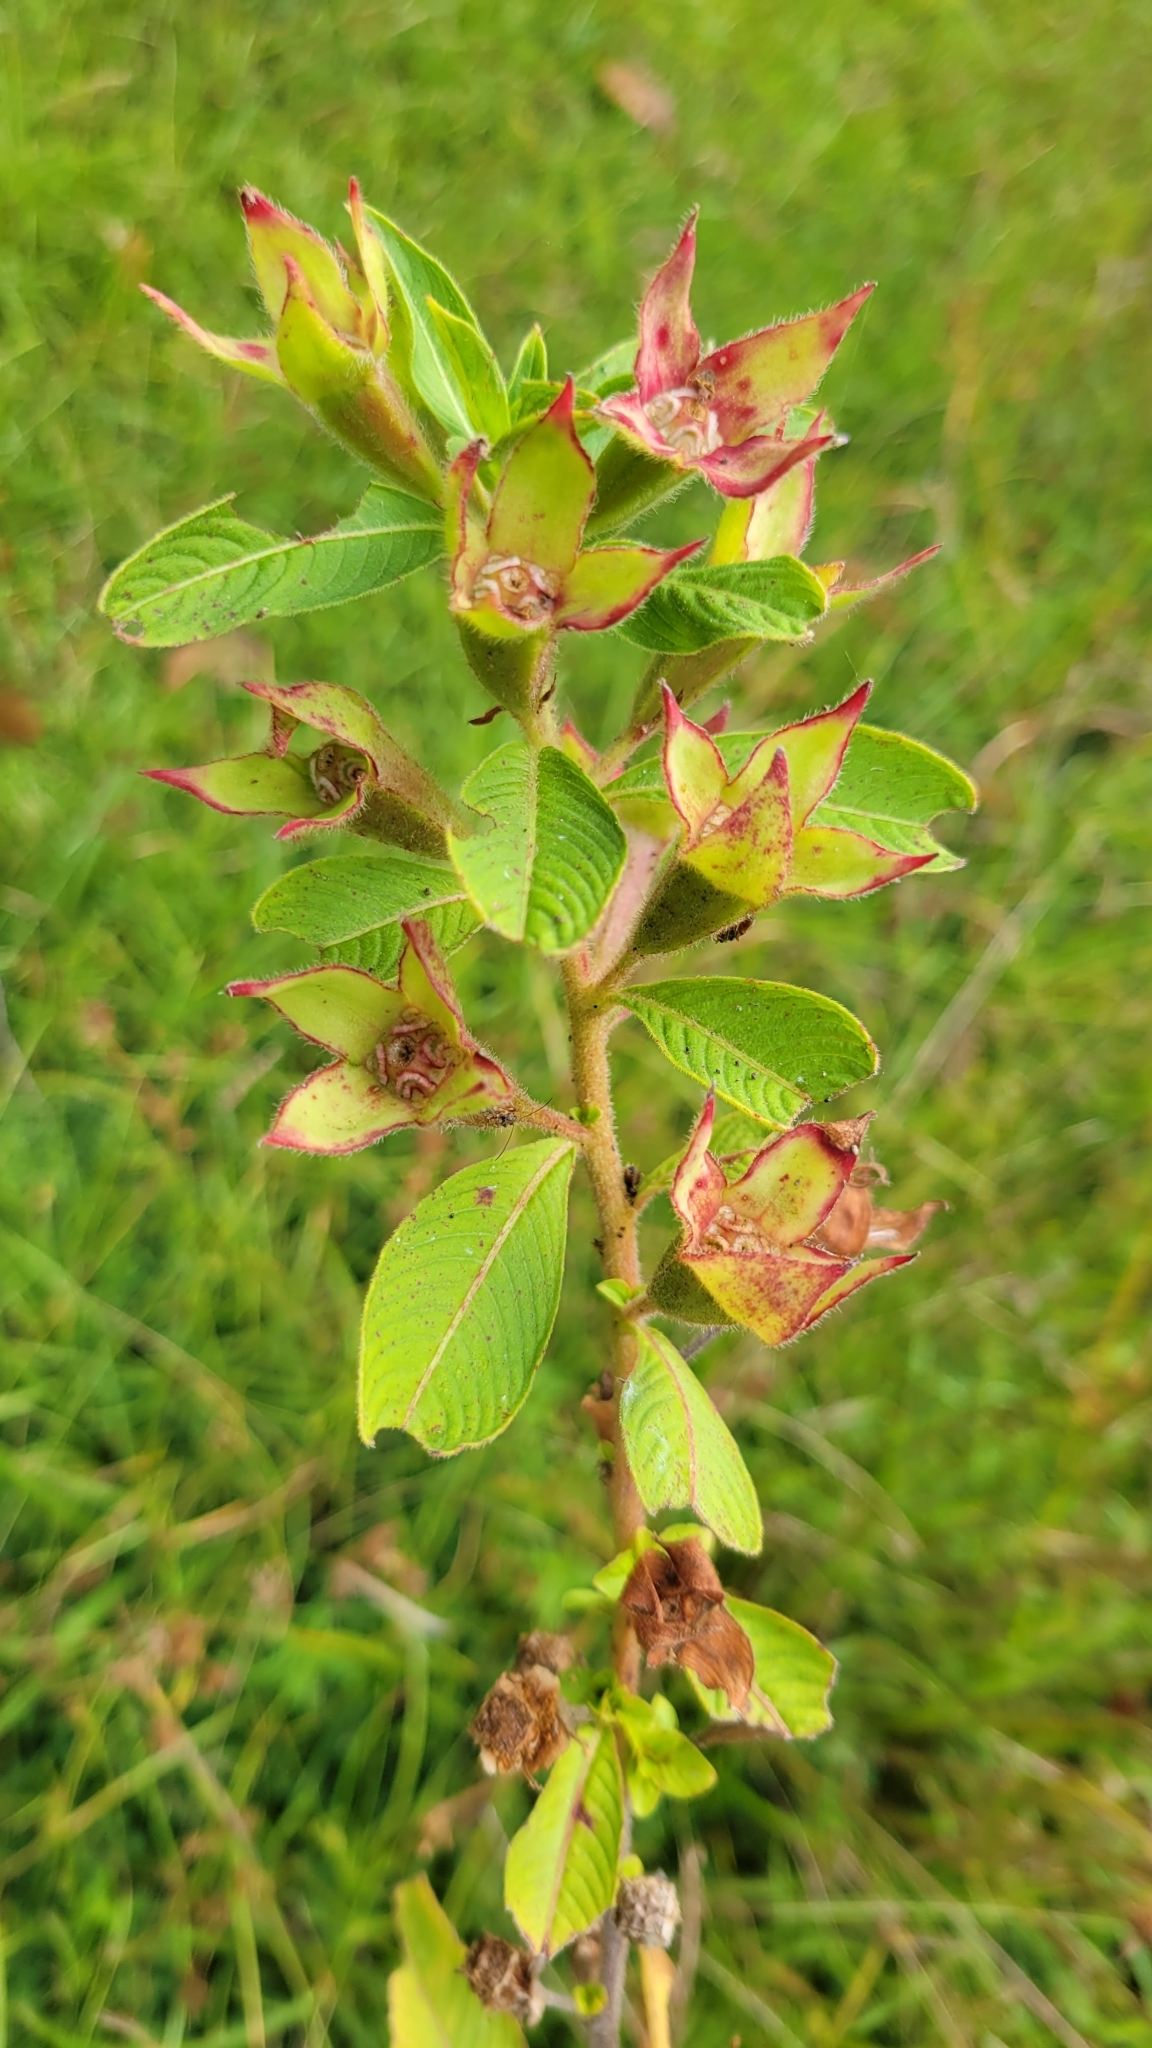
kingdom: Plantae
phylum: Tracheophyta
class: Magnoliopsida
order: Myrtales
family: Onagraceae
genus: Ludwigia
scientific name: Ludwigia peruviana
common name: Peruvian primrose-willow
